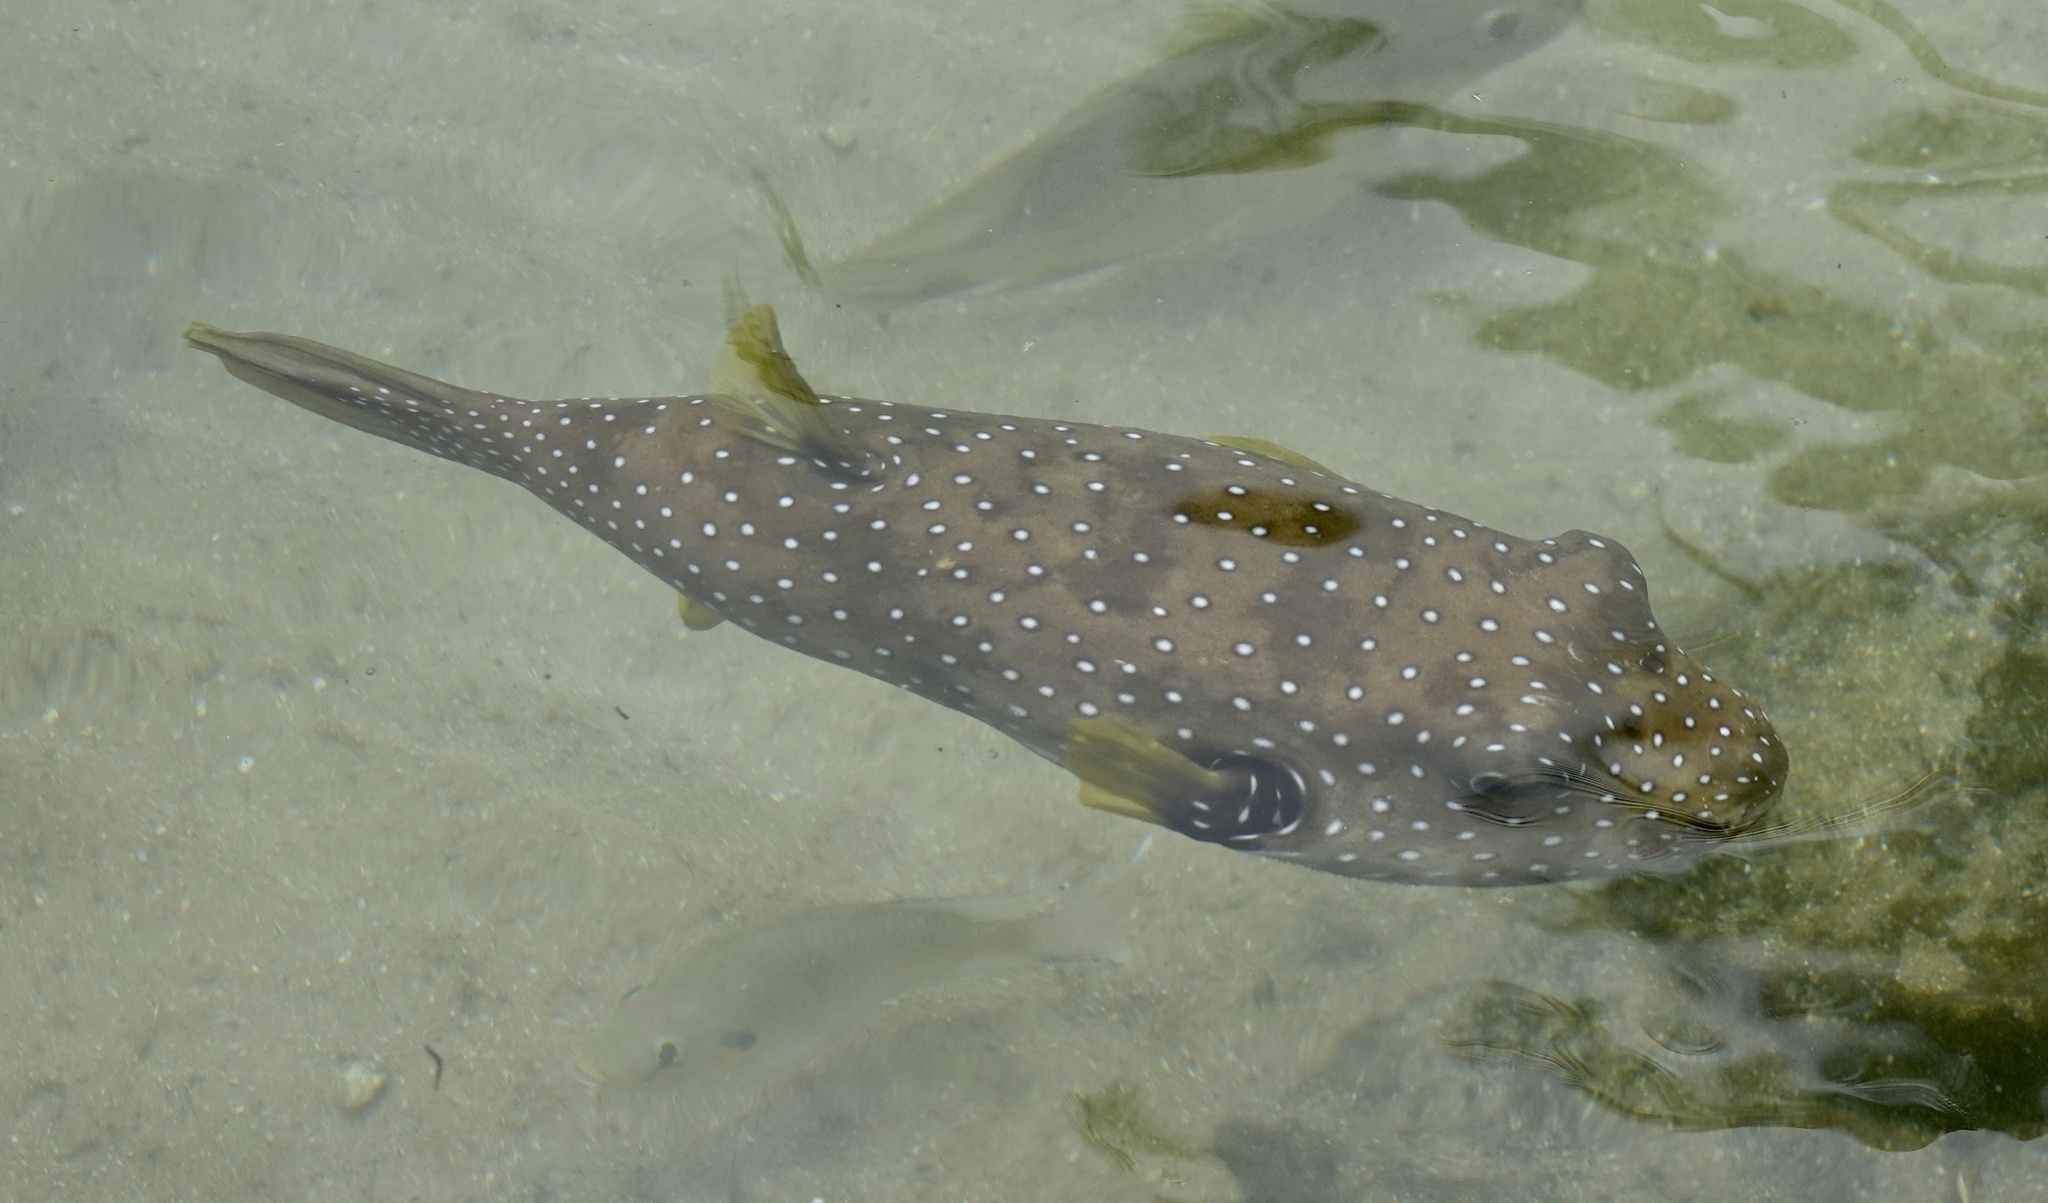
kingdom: Animalia
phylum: Chordata
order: Tetraodontiformes
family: Tetraodontidae
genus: Arothron
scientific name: Arothron hispidus
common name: Stripebelly puffer
